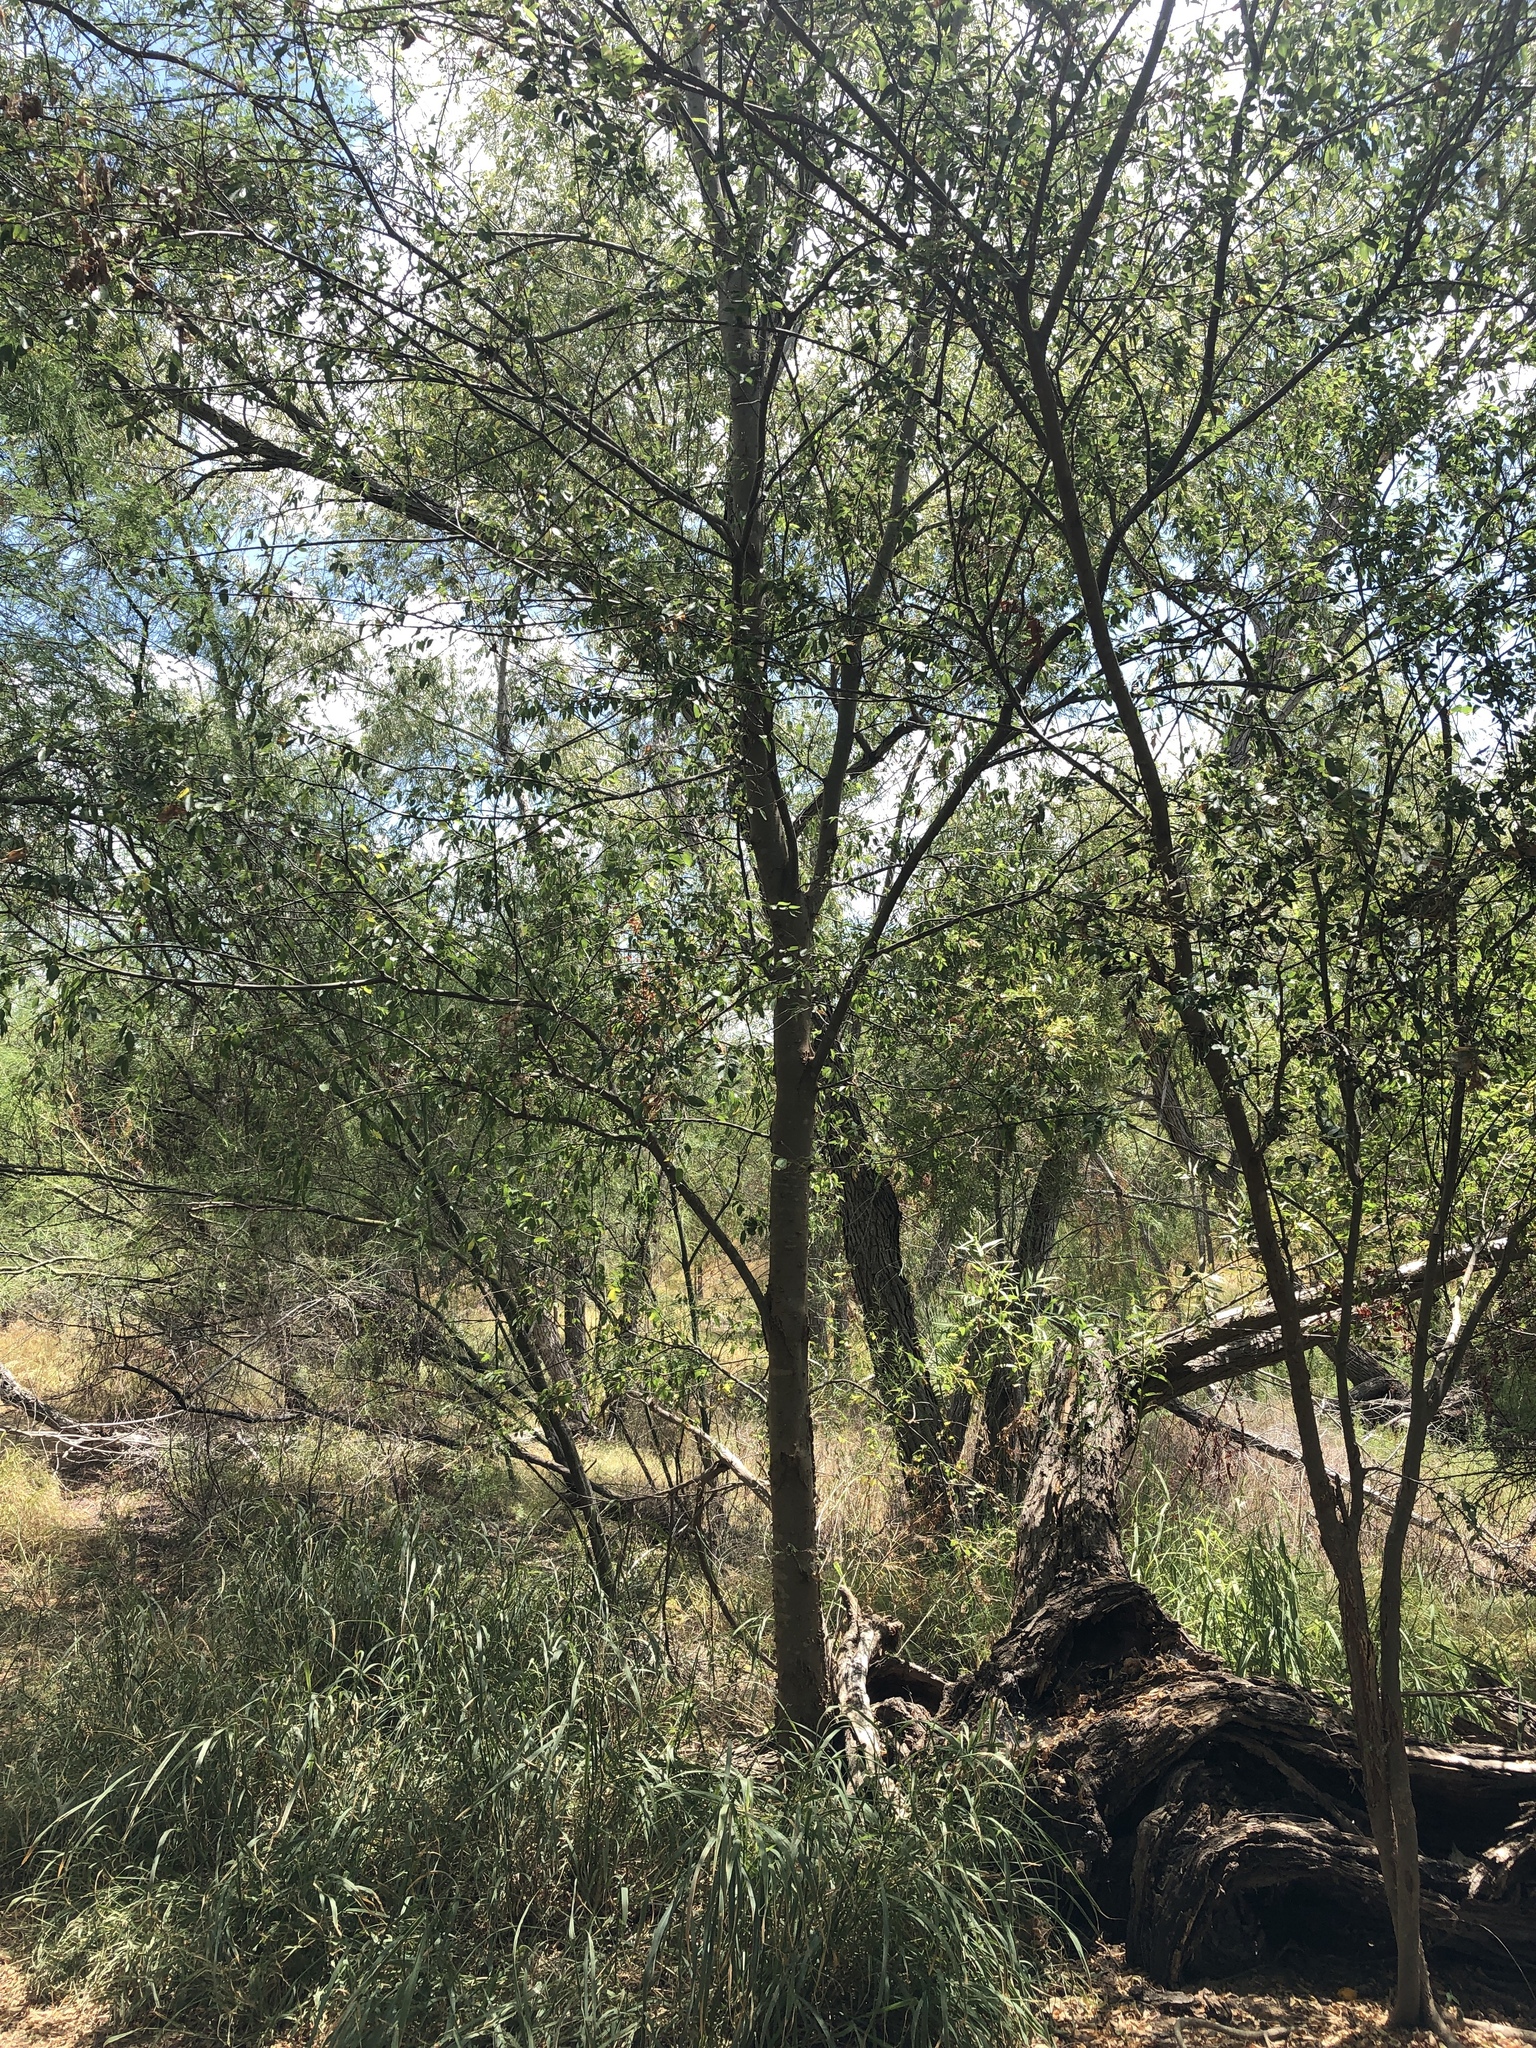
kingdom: Plantae
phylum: Tracheophyta
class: Magnoliopsida
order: Rosales
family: Cannabaceae
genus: Celtis
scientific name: Celtis laevigata
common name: Sugarberry
